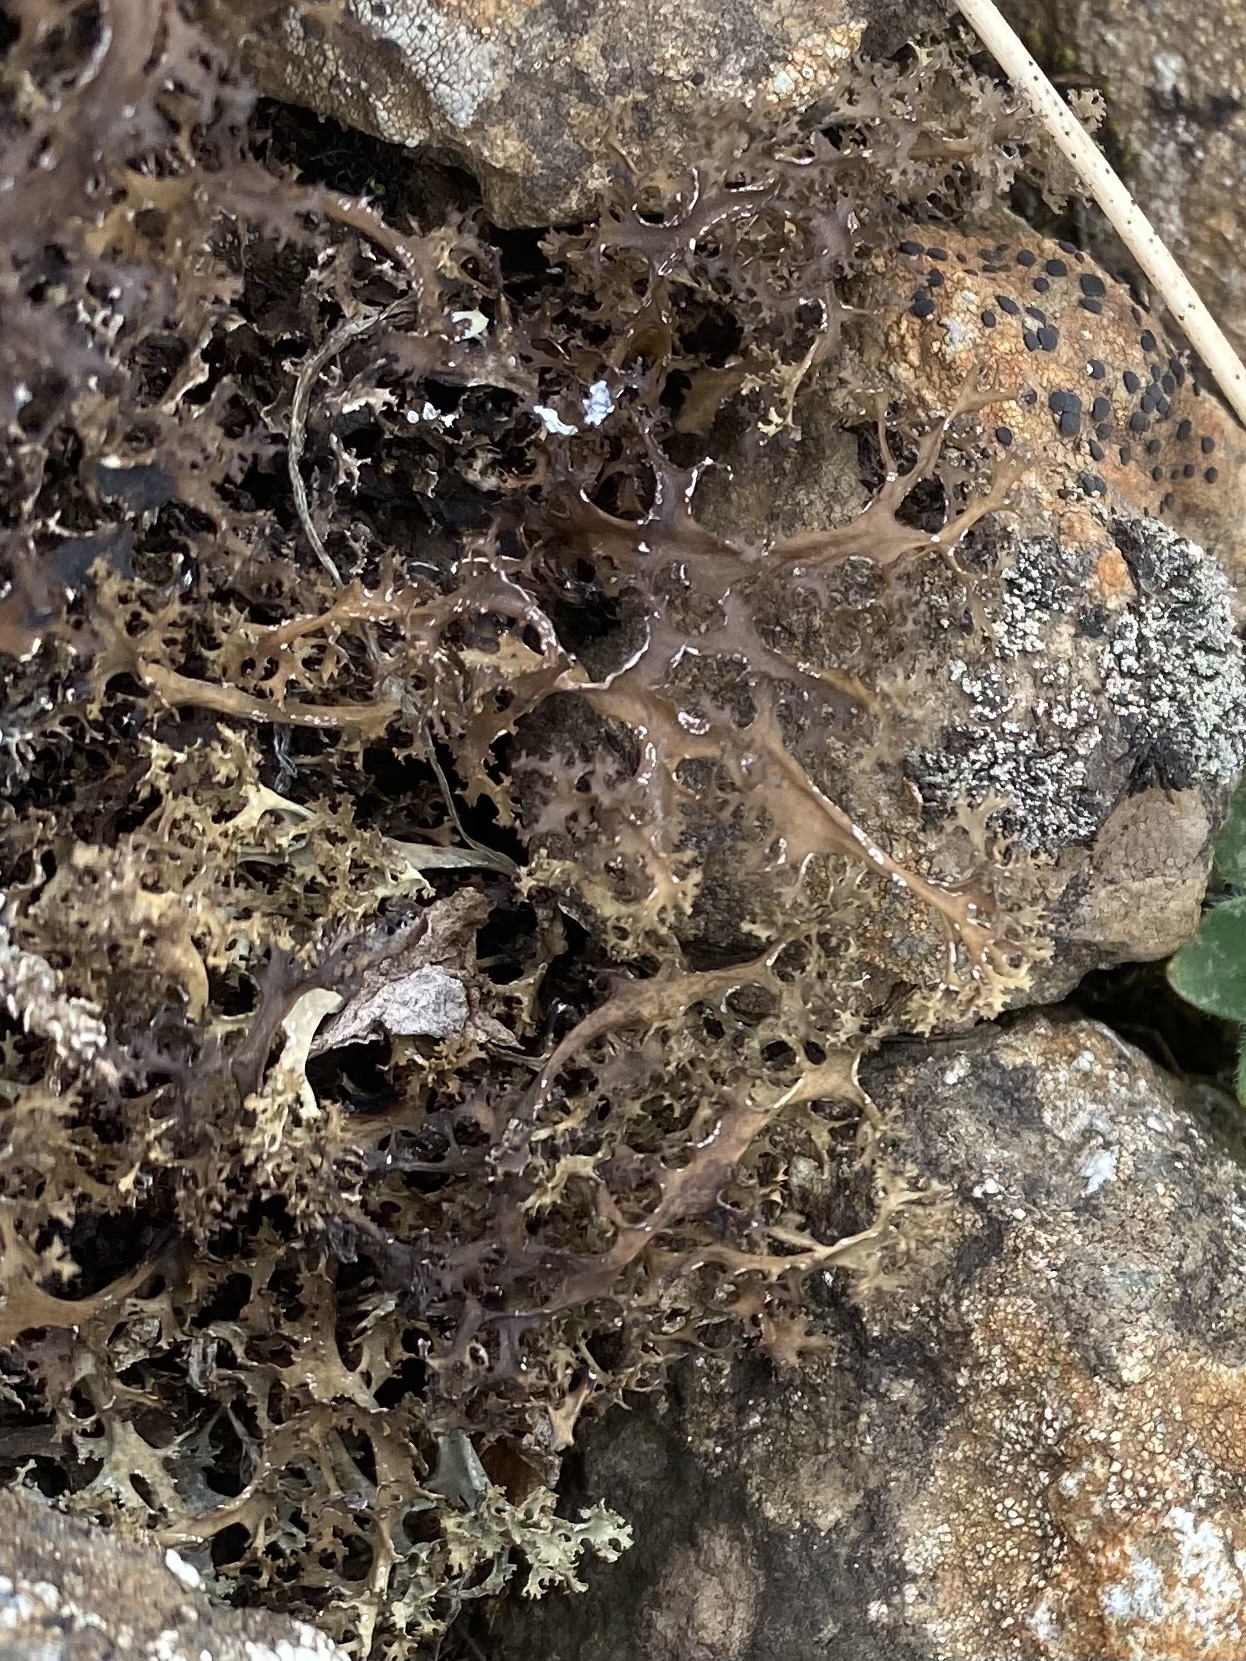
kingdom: Fungi
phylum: Ascomycota
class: Lecanoromycetes
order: Lecanorales
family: Parmeliaceae
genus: Cetraria
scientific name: Cetraria islandica
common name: Iceland lichen
